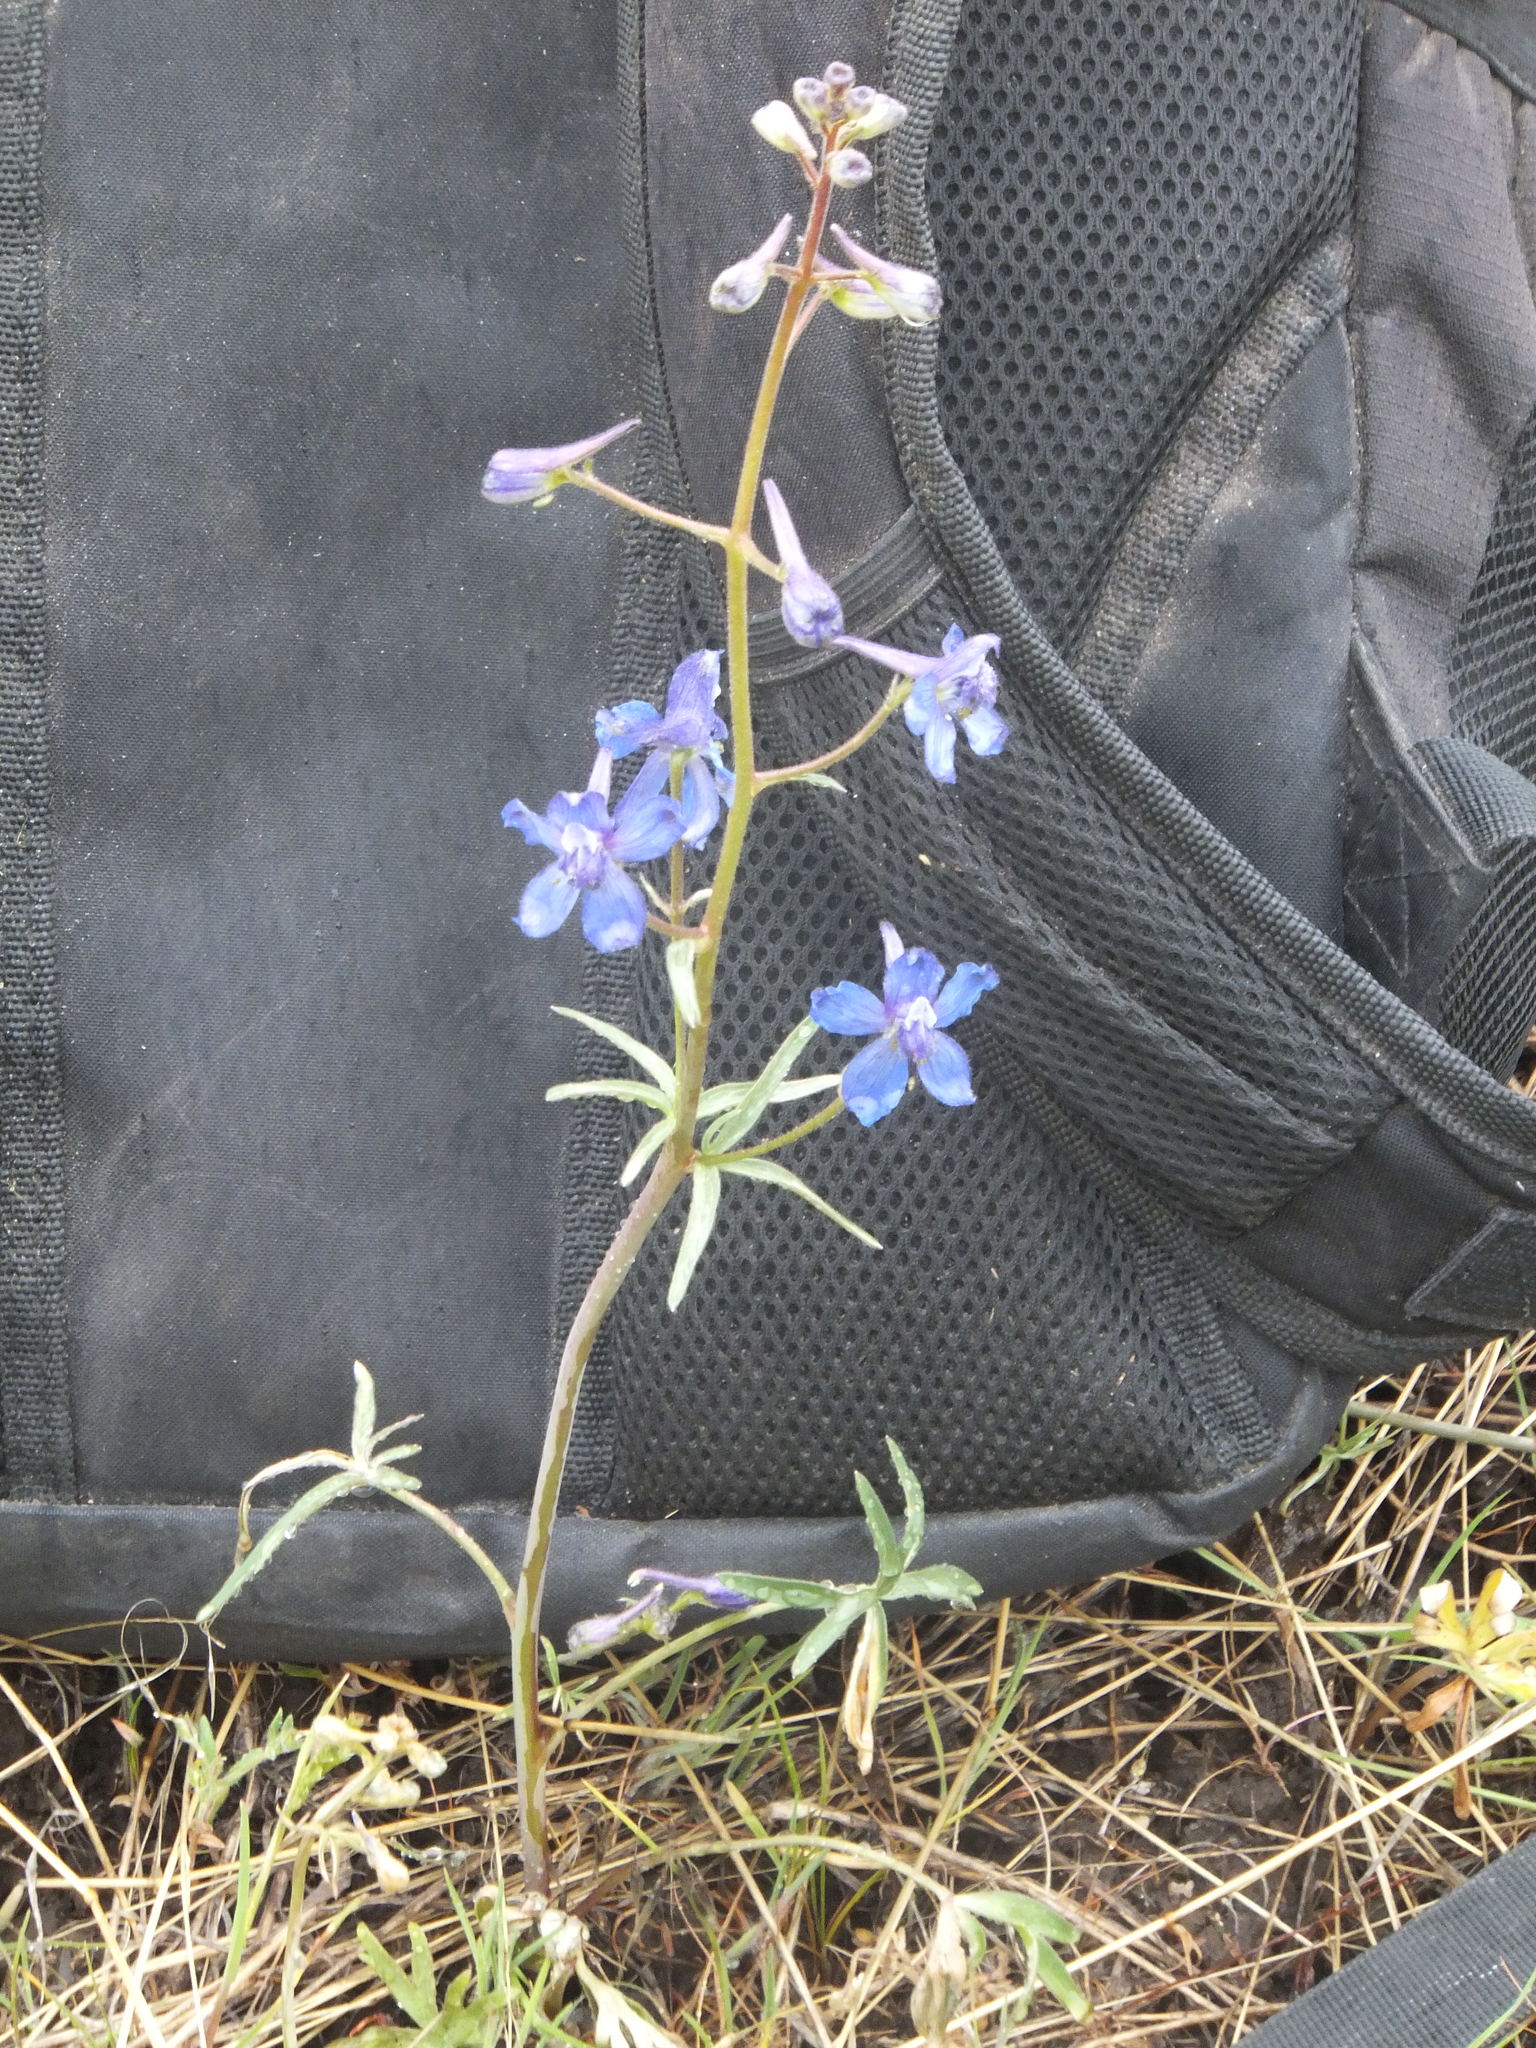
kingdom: Plantae
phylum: Tracheophyta
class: Magnoliopsida
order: Ranunculales
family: Ranunculaceae
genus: Delphinium
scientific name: Delphinium nuttallianum
